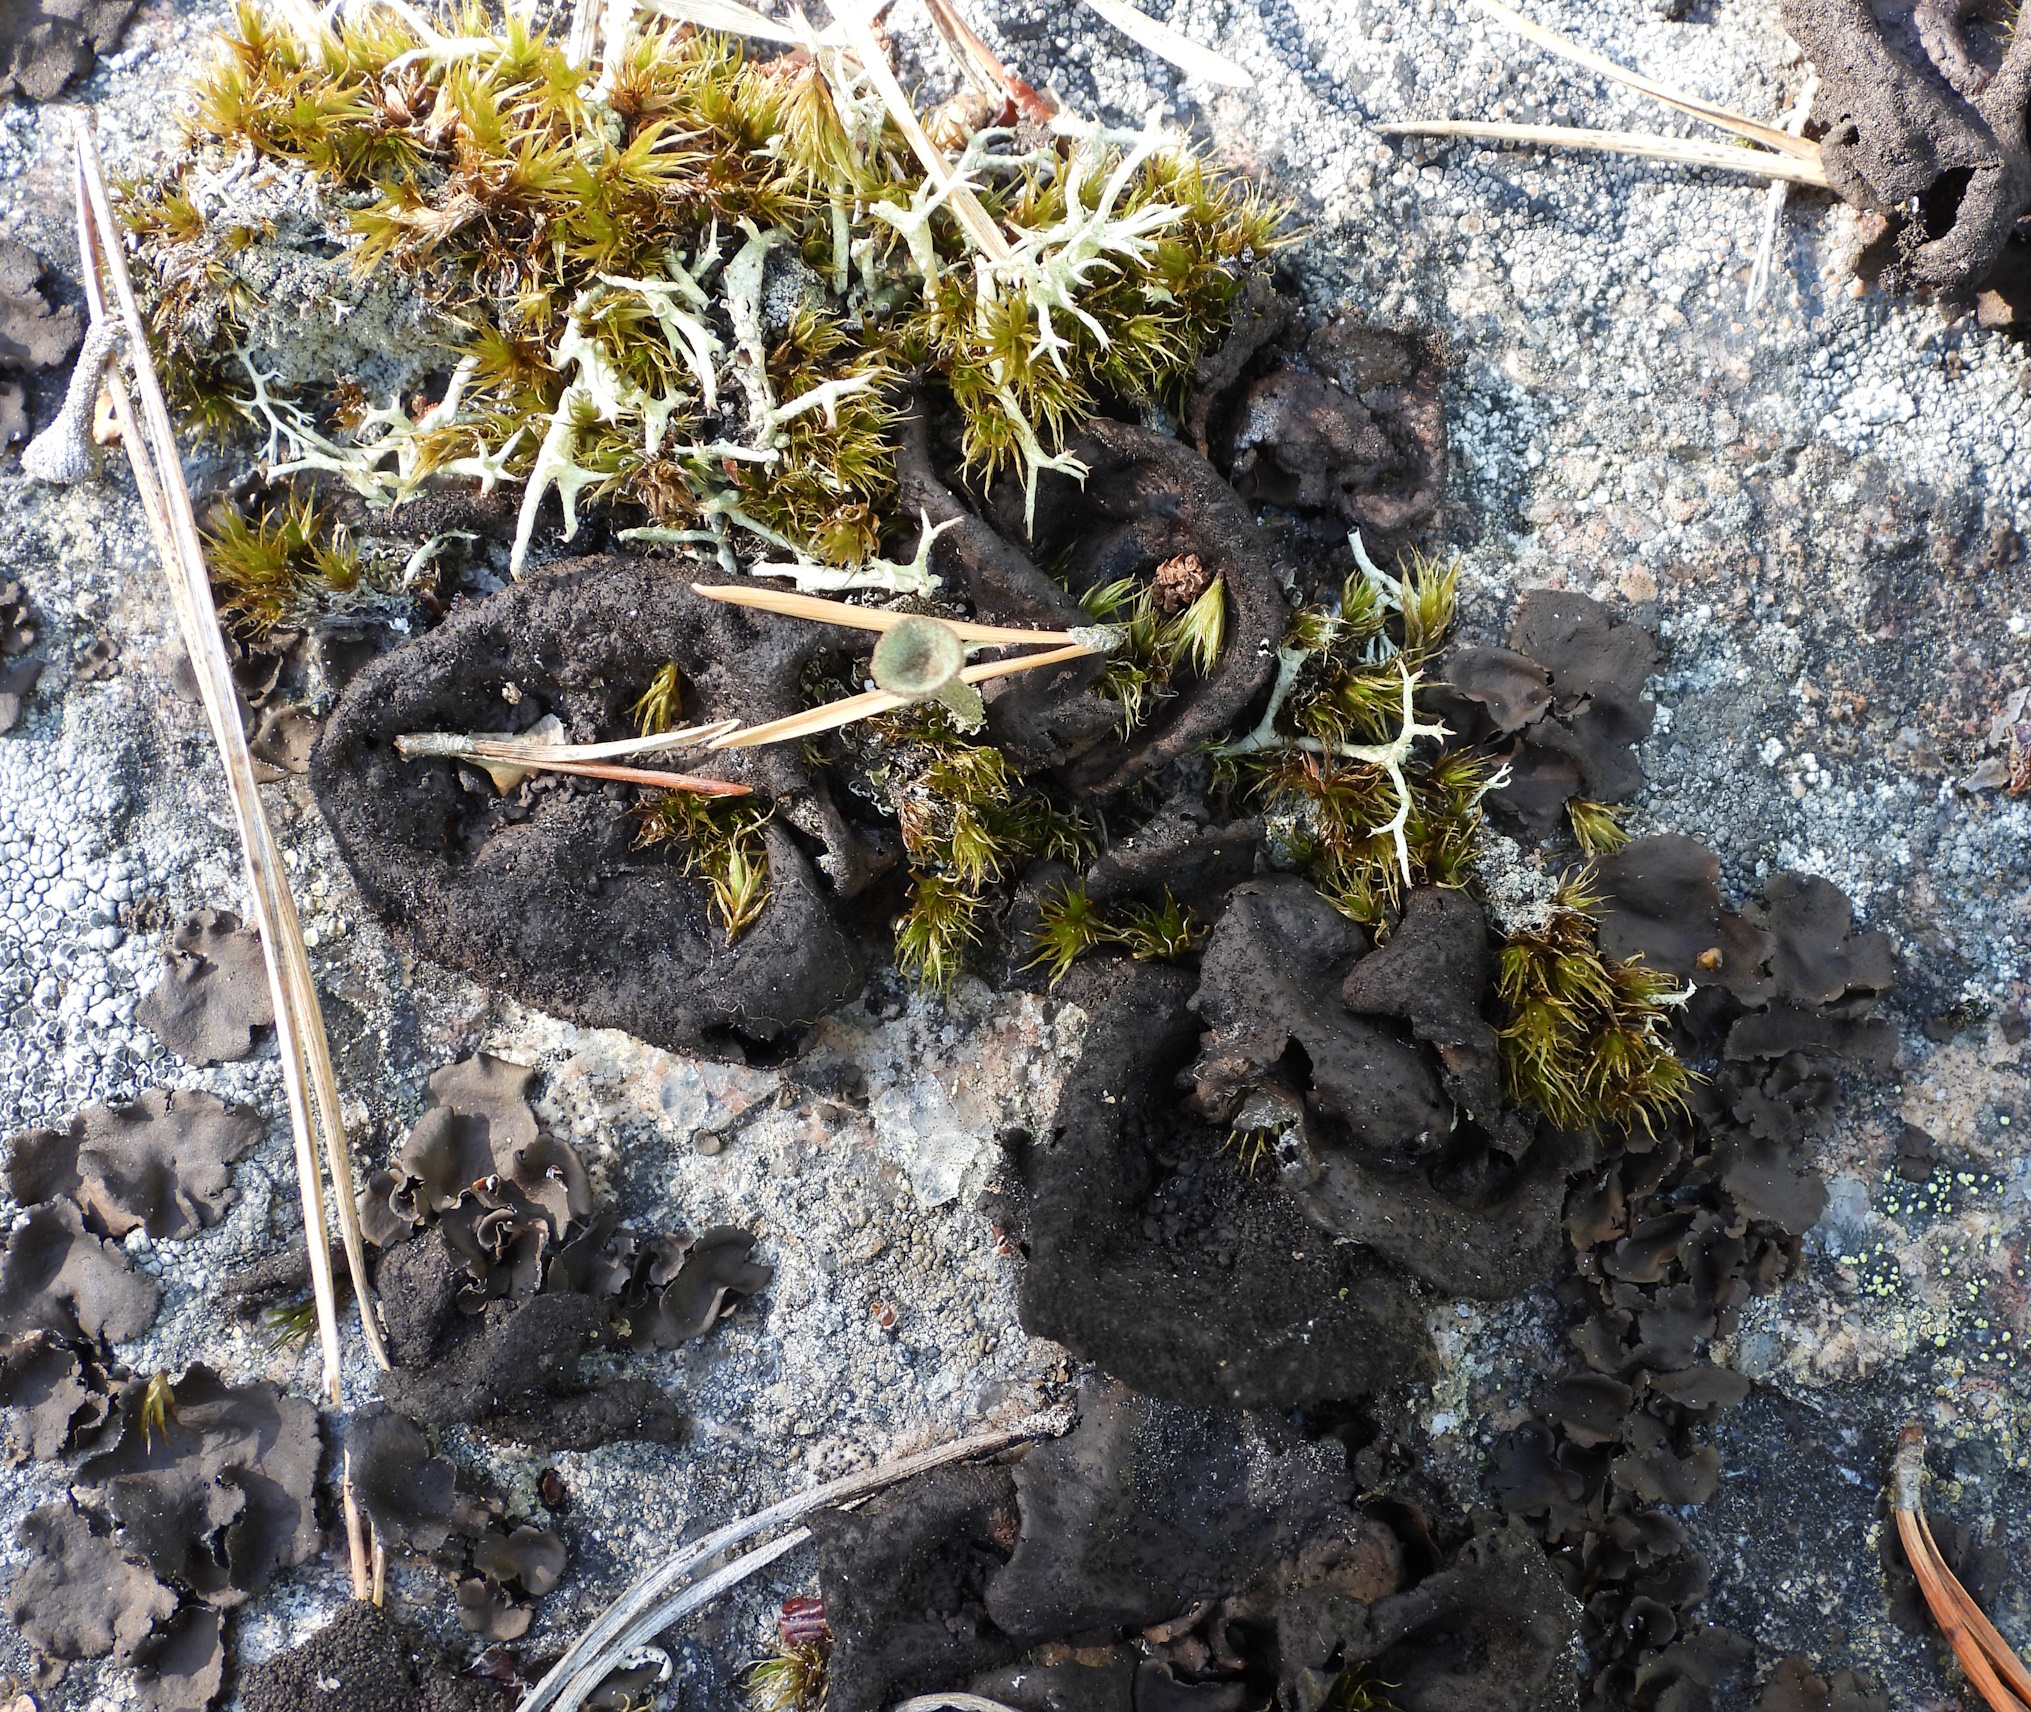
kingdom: Fungi
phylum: Ascomycota
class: Lecanoromycetes
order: Umbilicariales
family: Umbilicariaceae
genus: Umbilicaria
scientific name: Umbilicaria deusta
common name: Peppered rock tripe
